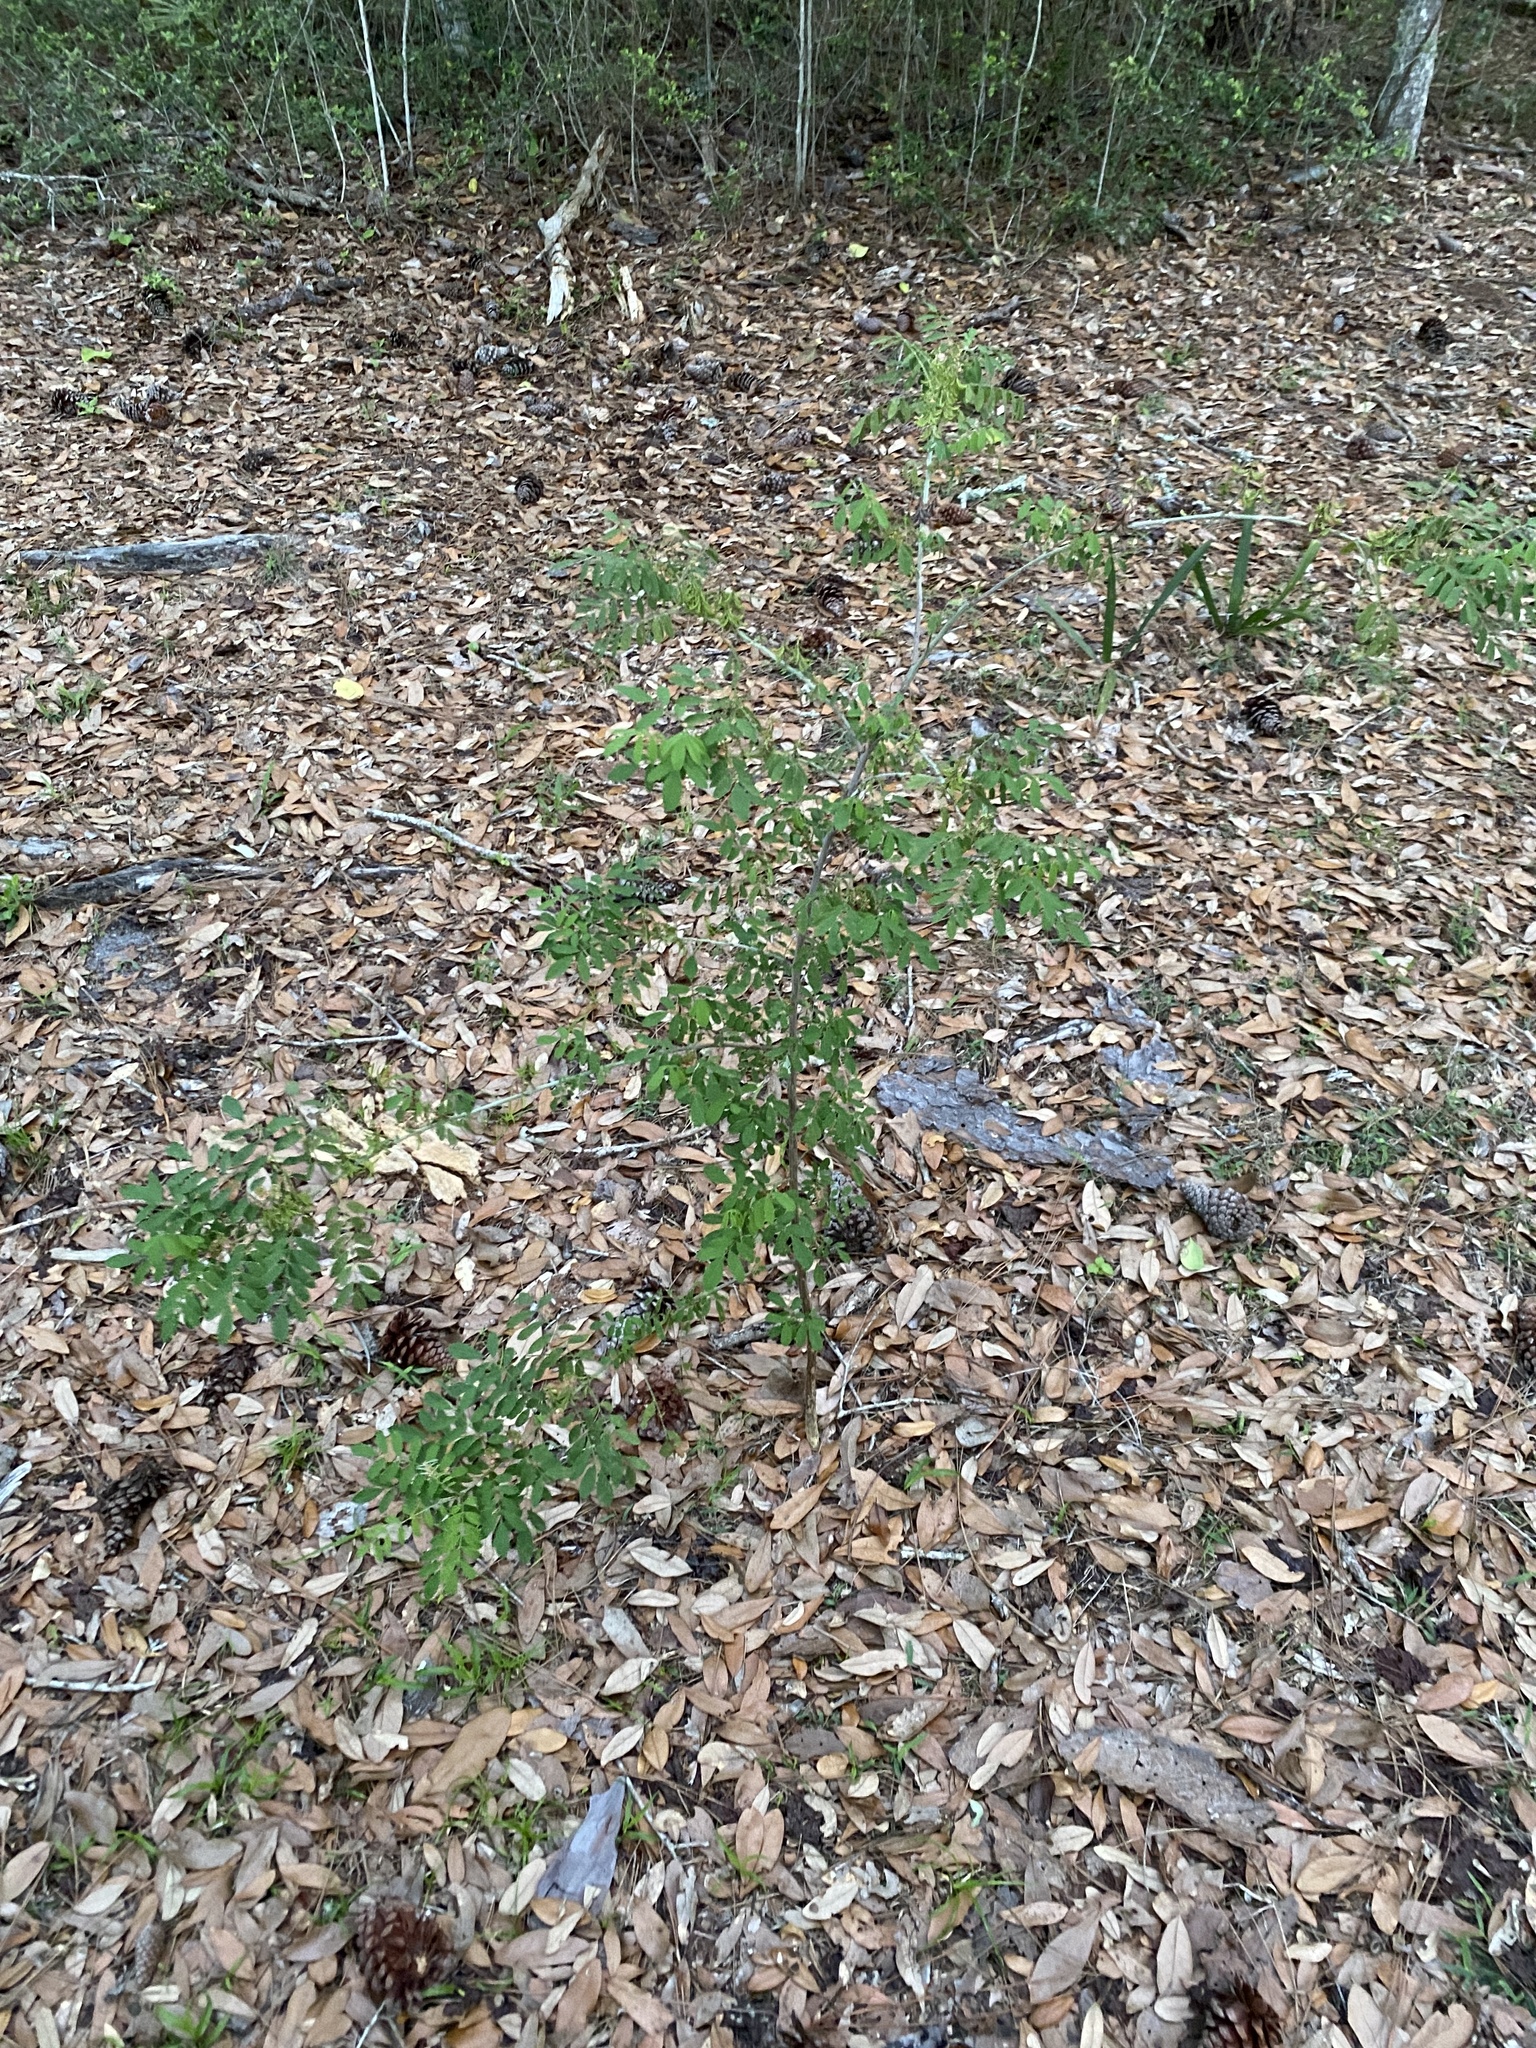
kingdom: Plantae
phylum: Tracheophyta
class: Magnoliopsida
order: Fabales
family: Fabaceae
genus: Indigofera
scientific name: Indigofera suffruticosa
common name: Anil de pasto
